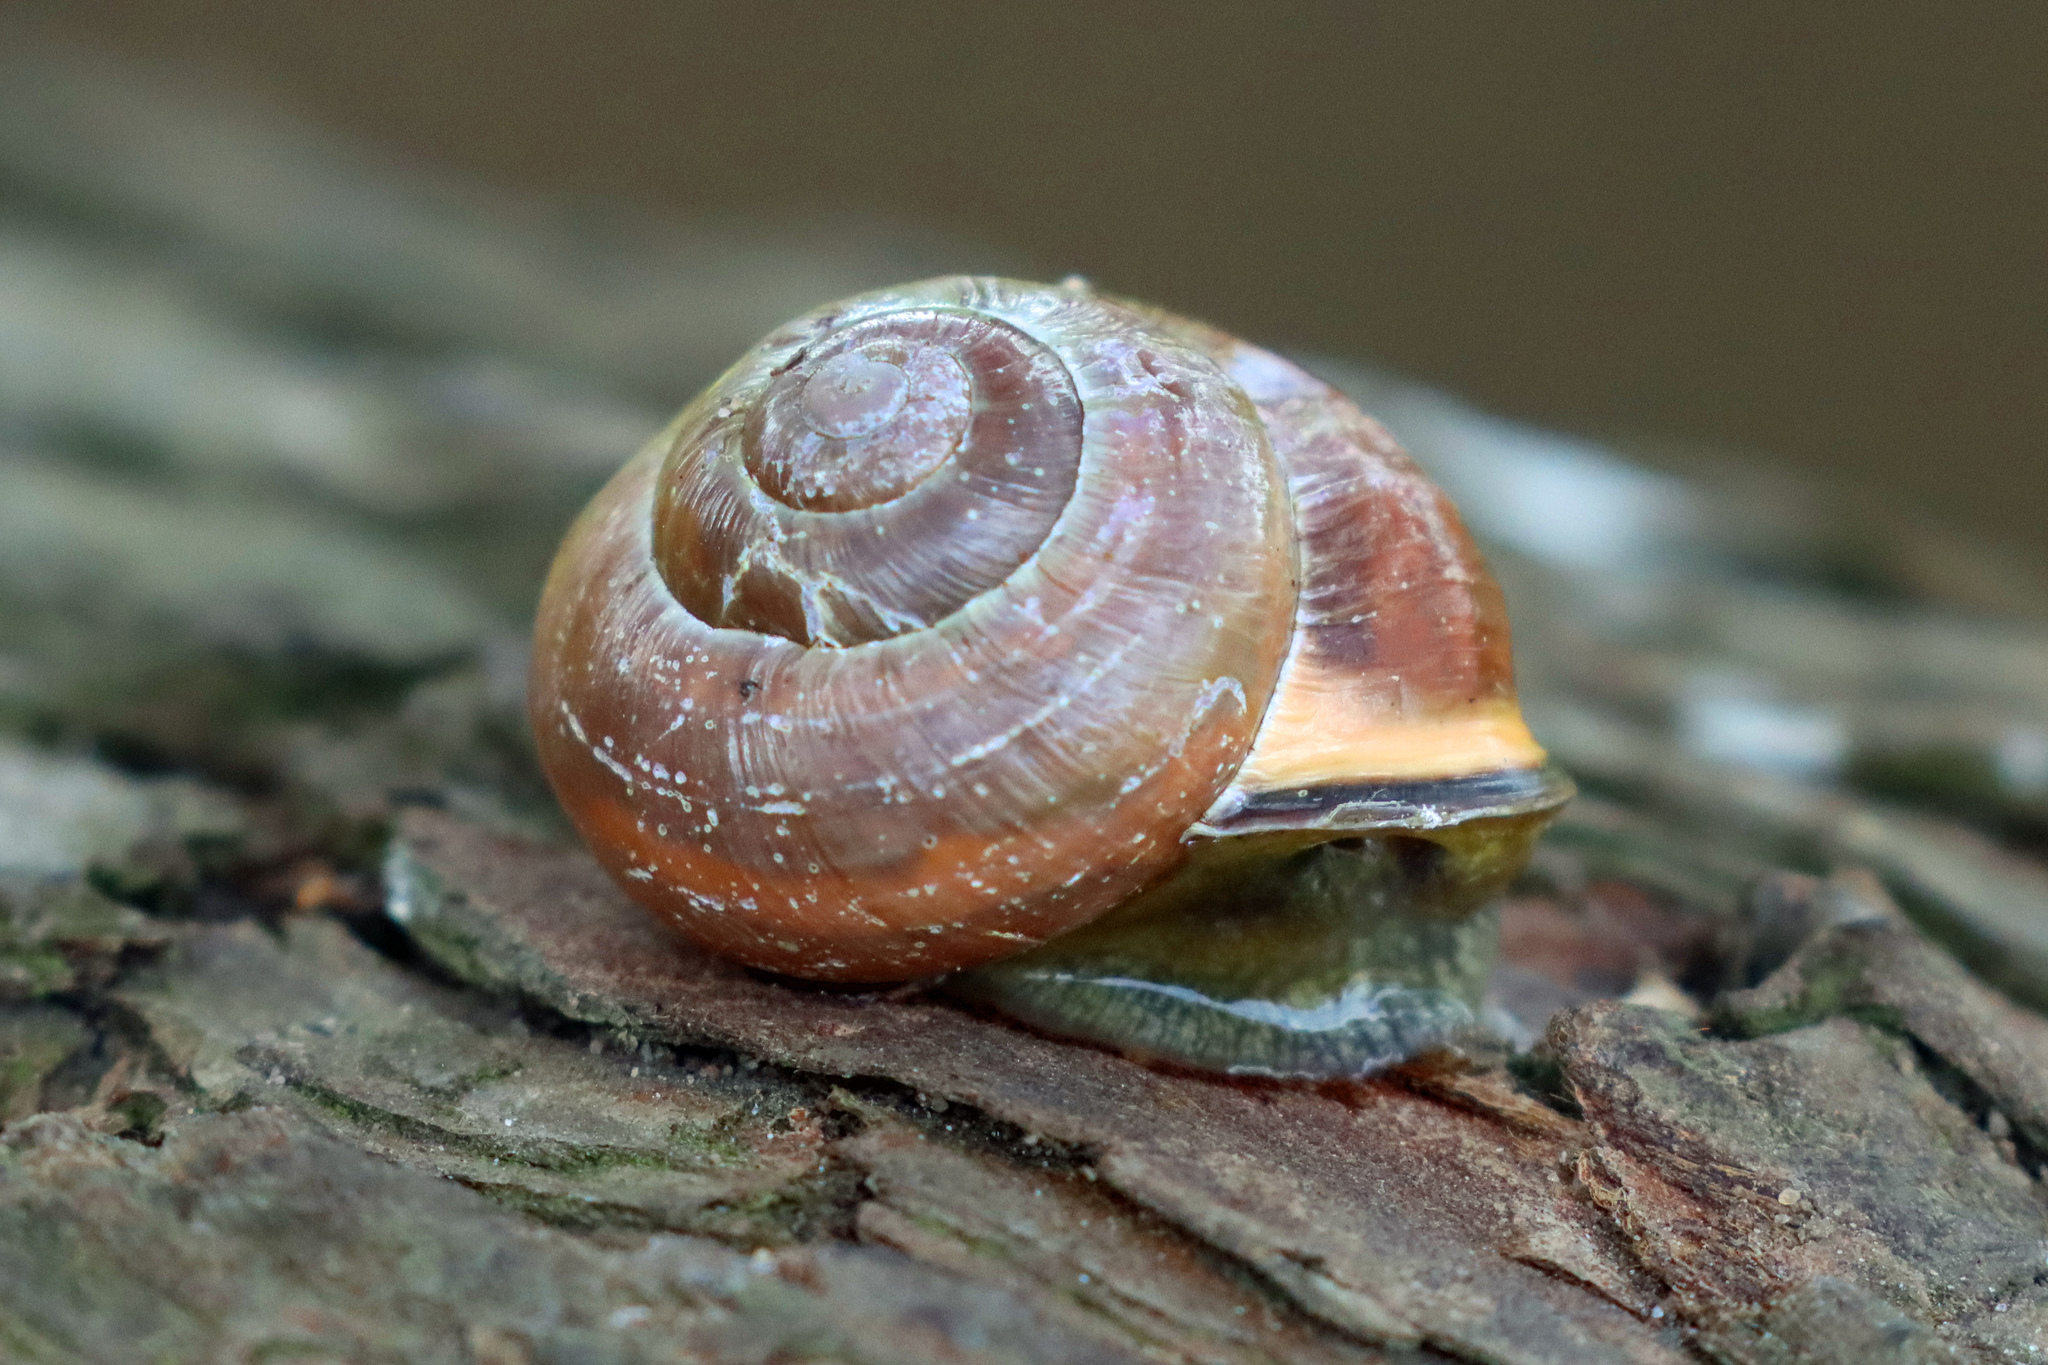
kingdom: Animalia
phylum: Mollusca
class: Gastropoda
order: Stylommatophora
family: Helicidae
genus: Cepaea
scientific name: Cepaea nemoralis
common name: Grovesnail
